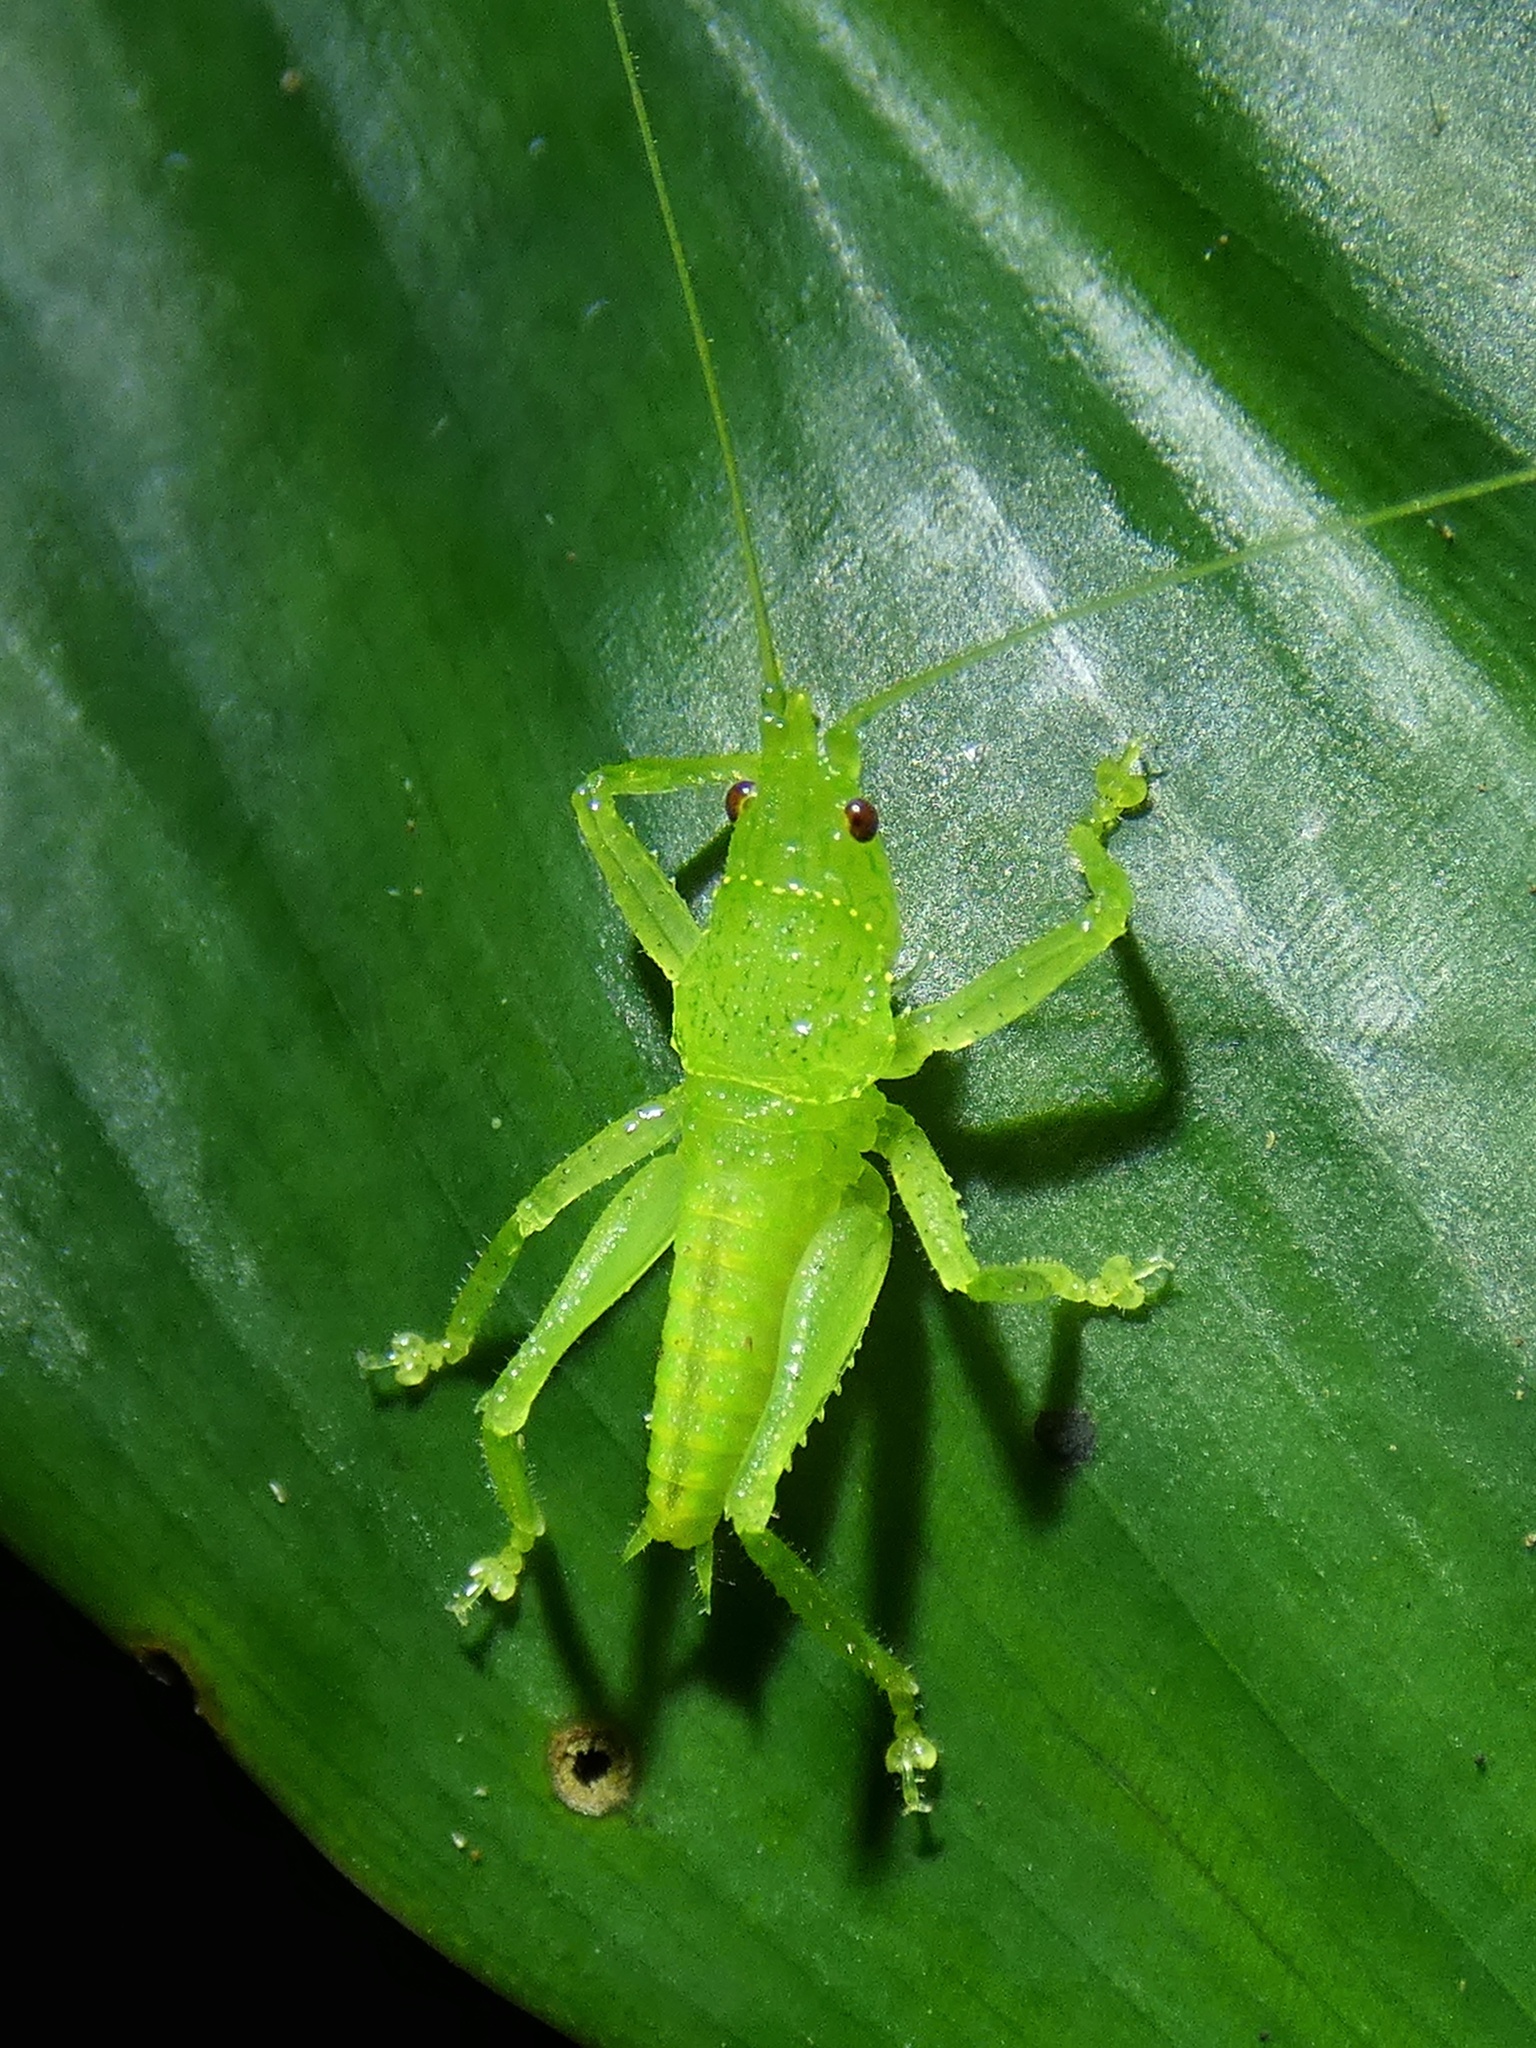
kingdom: Animalia
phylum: Arthropoda
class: Insecta
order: Orthoptera
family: Tettigoniidae
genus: Emeraldagraecia
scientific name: Emeraldagraecia munggarifrons
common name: Pink-faced emerald
